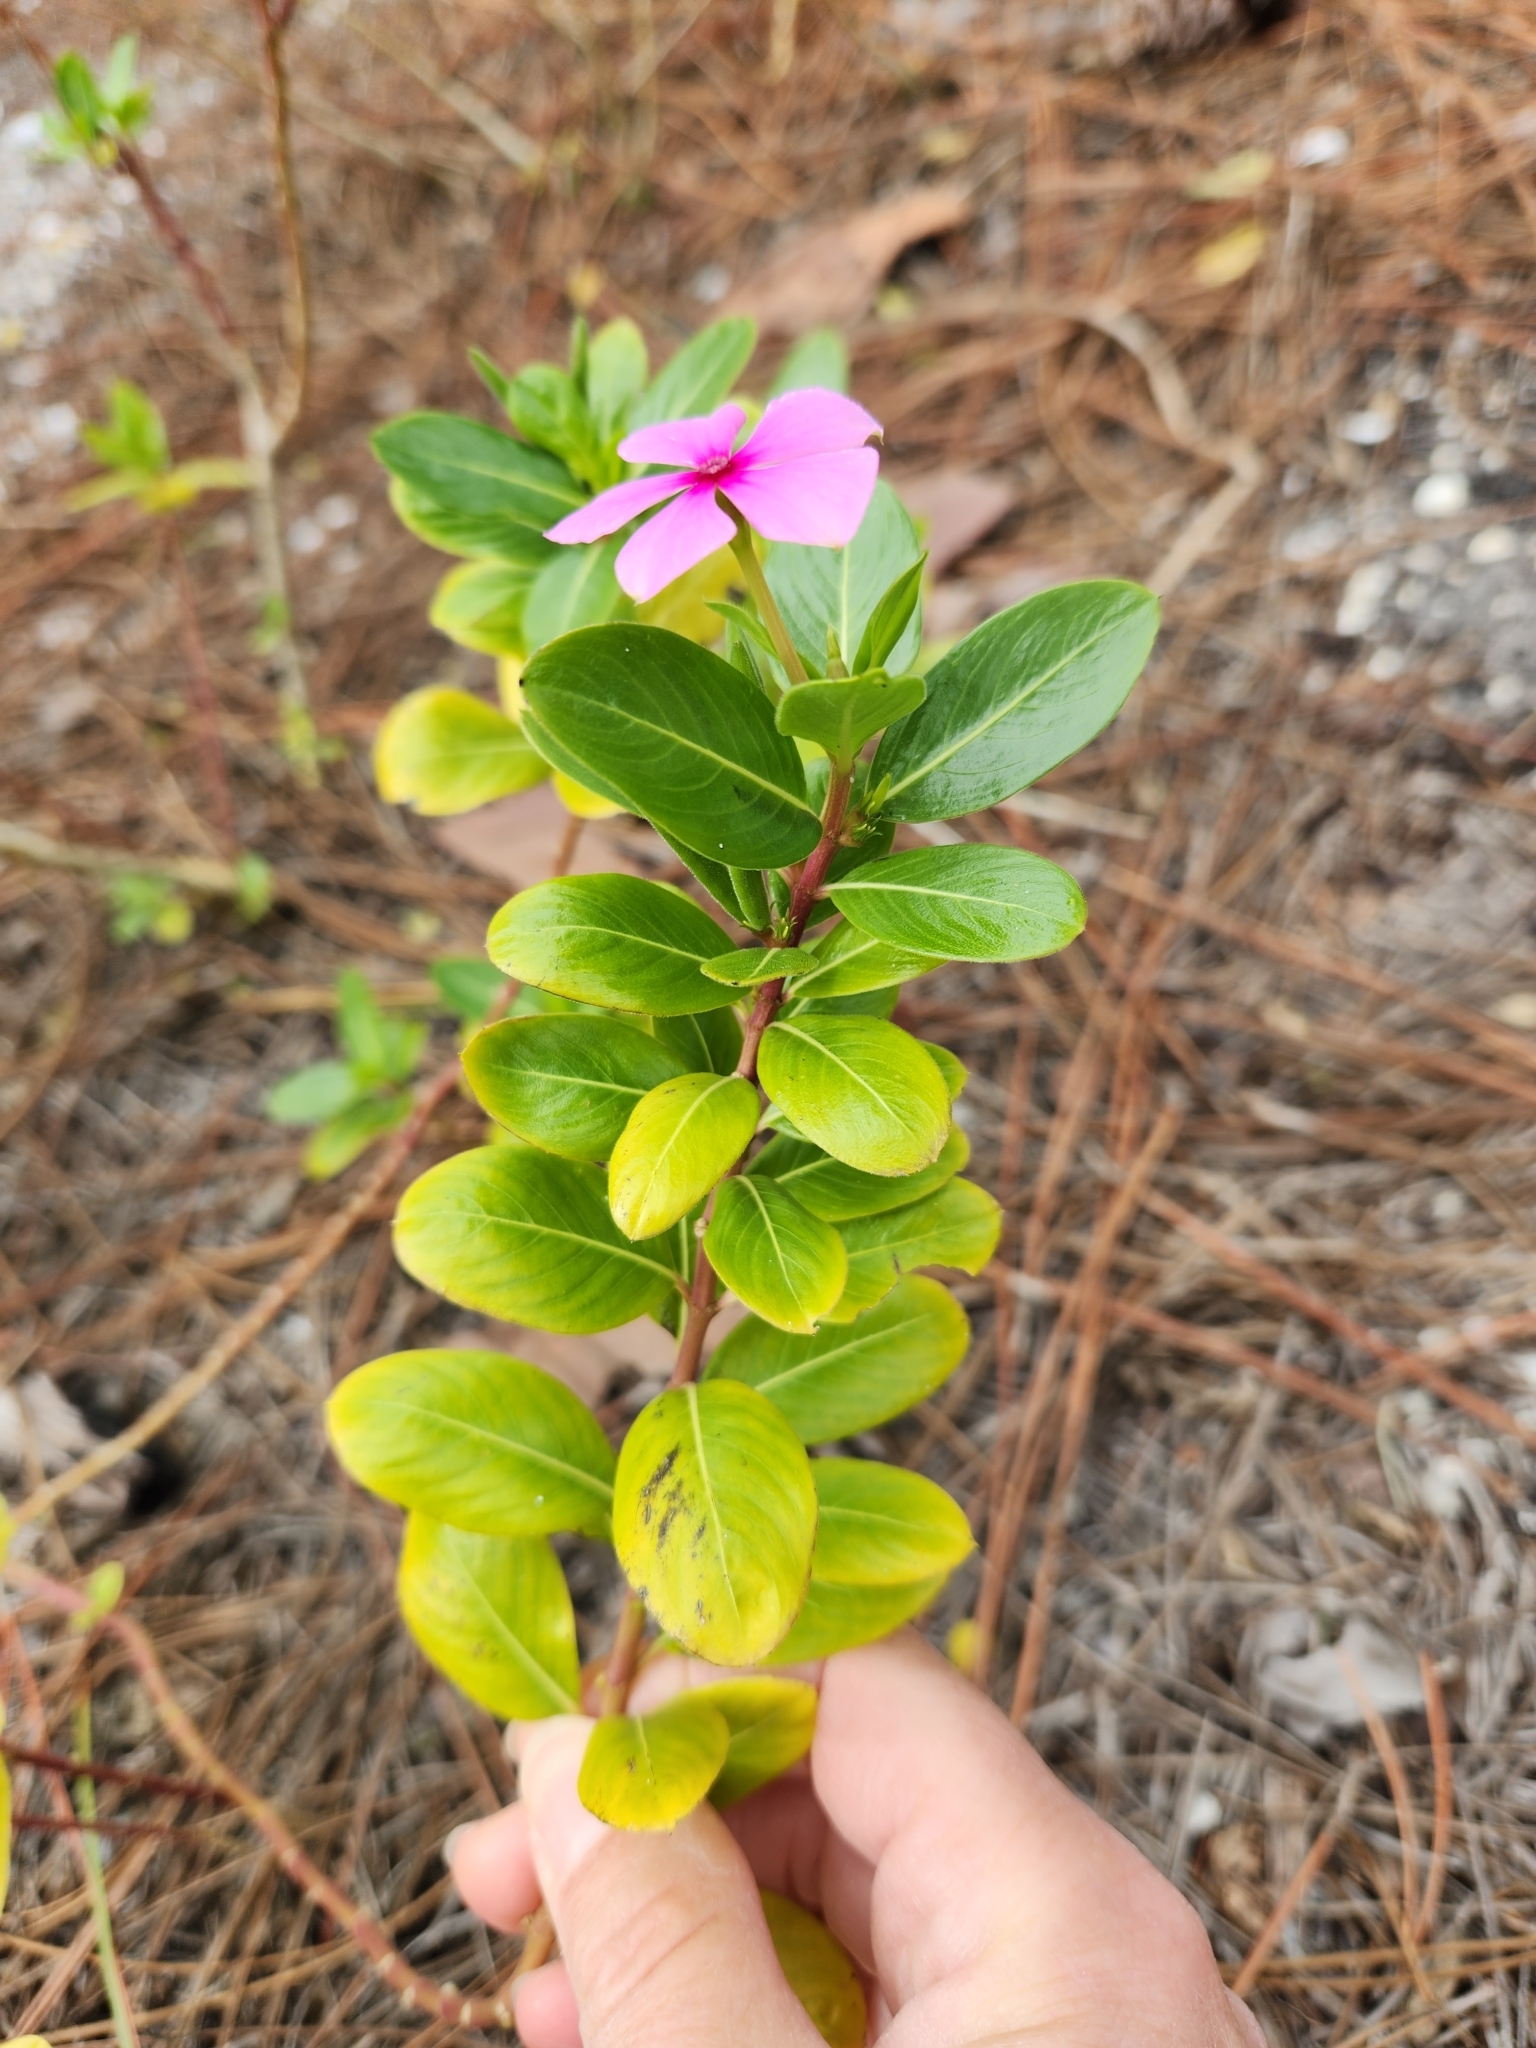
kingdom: Plantae
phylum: Tracheophyta
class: Magnoliopsida
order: Gentianales
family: Apocynaceae
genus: Catharanthus
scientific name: Catharanthus roseus
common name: Madagascar periwinkle
